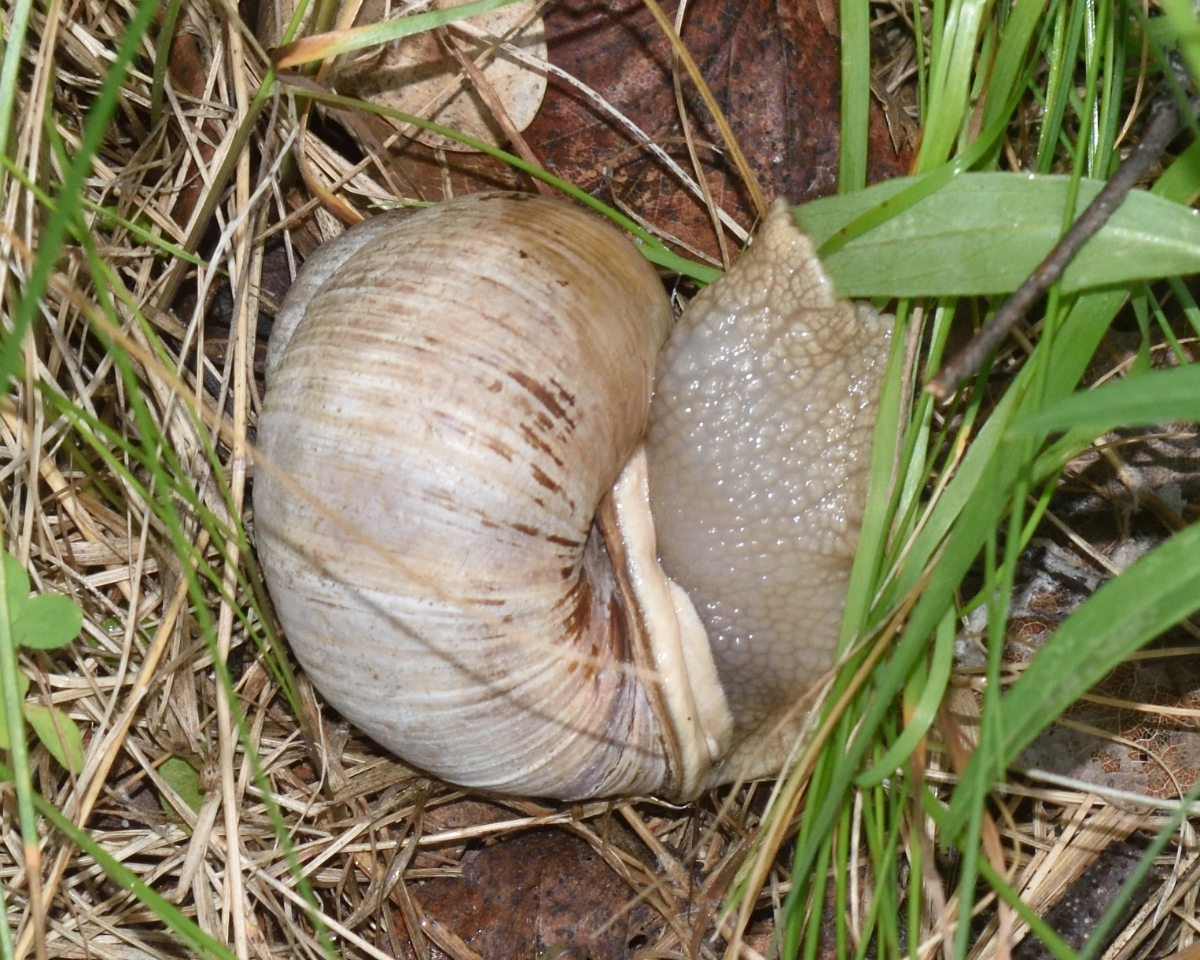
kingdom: Animalia
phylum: Mollusca
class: Gastropoda
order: Stylommatophora
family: Helicidae
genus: Helix
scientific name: Helix pomatia
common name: Roman snail
